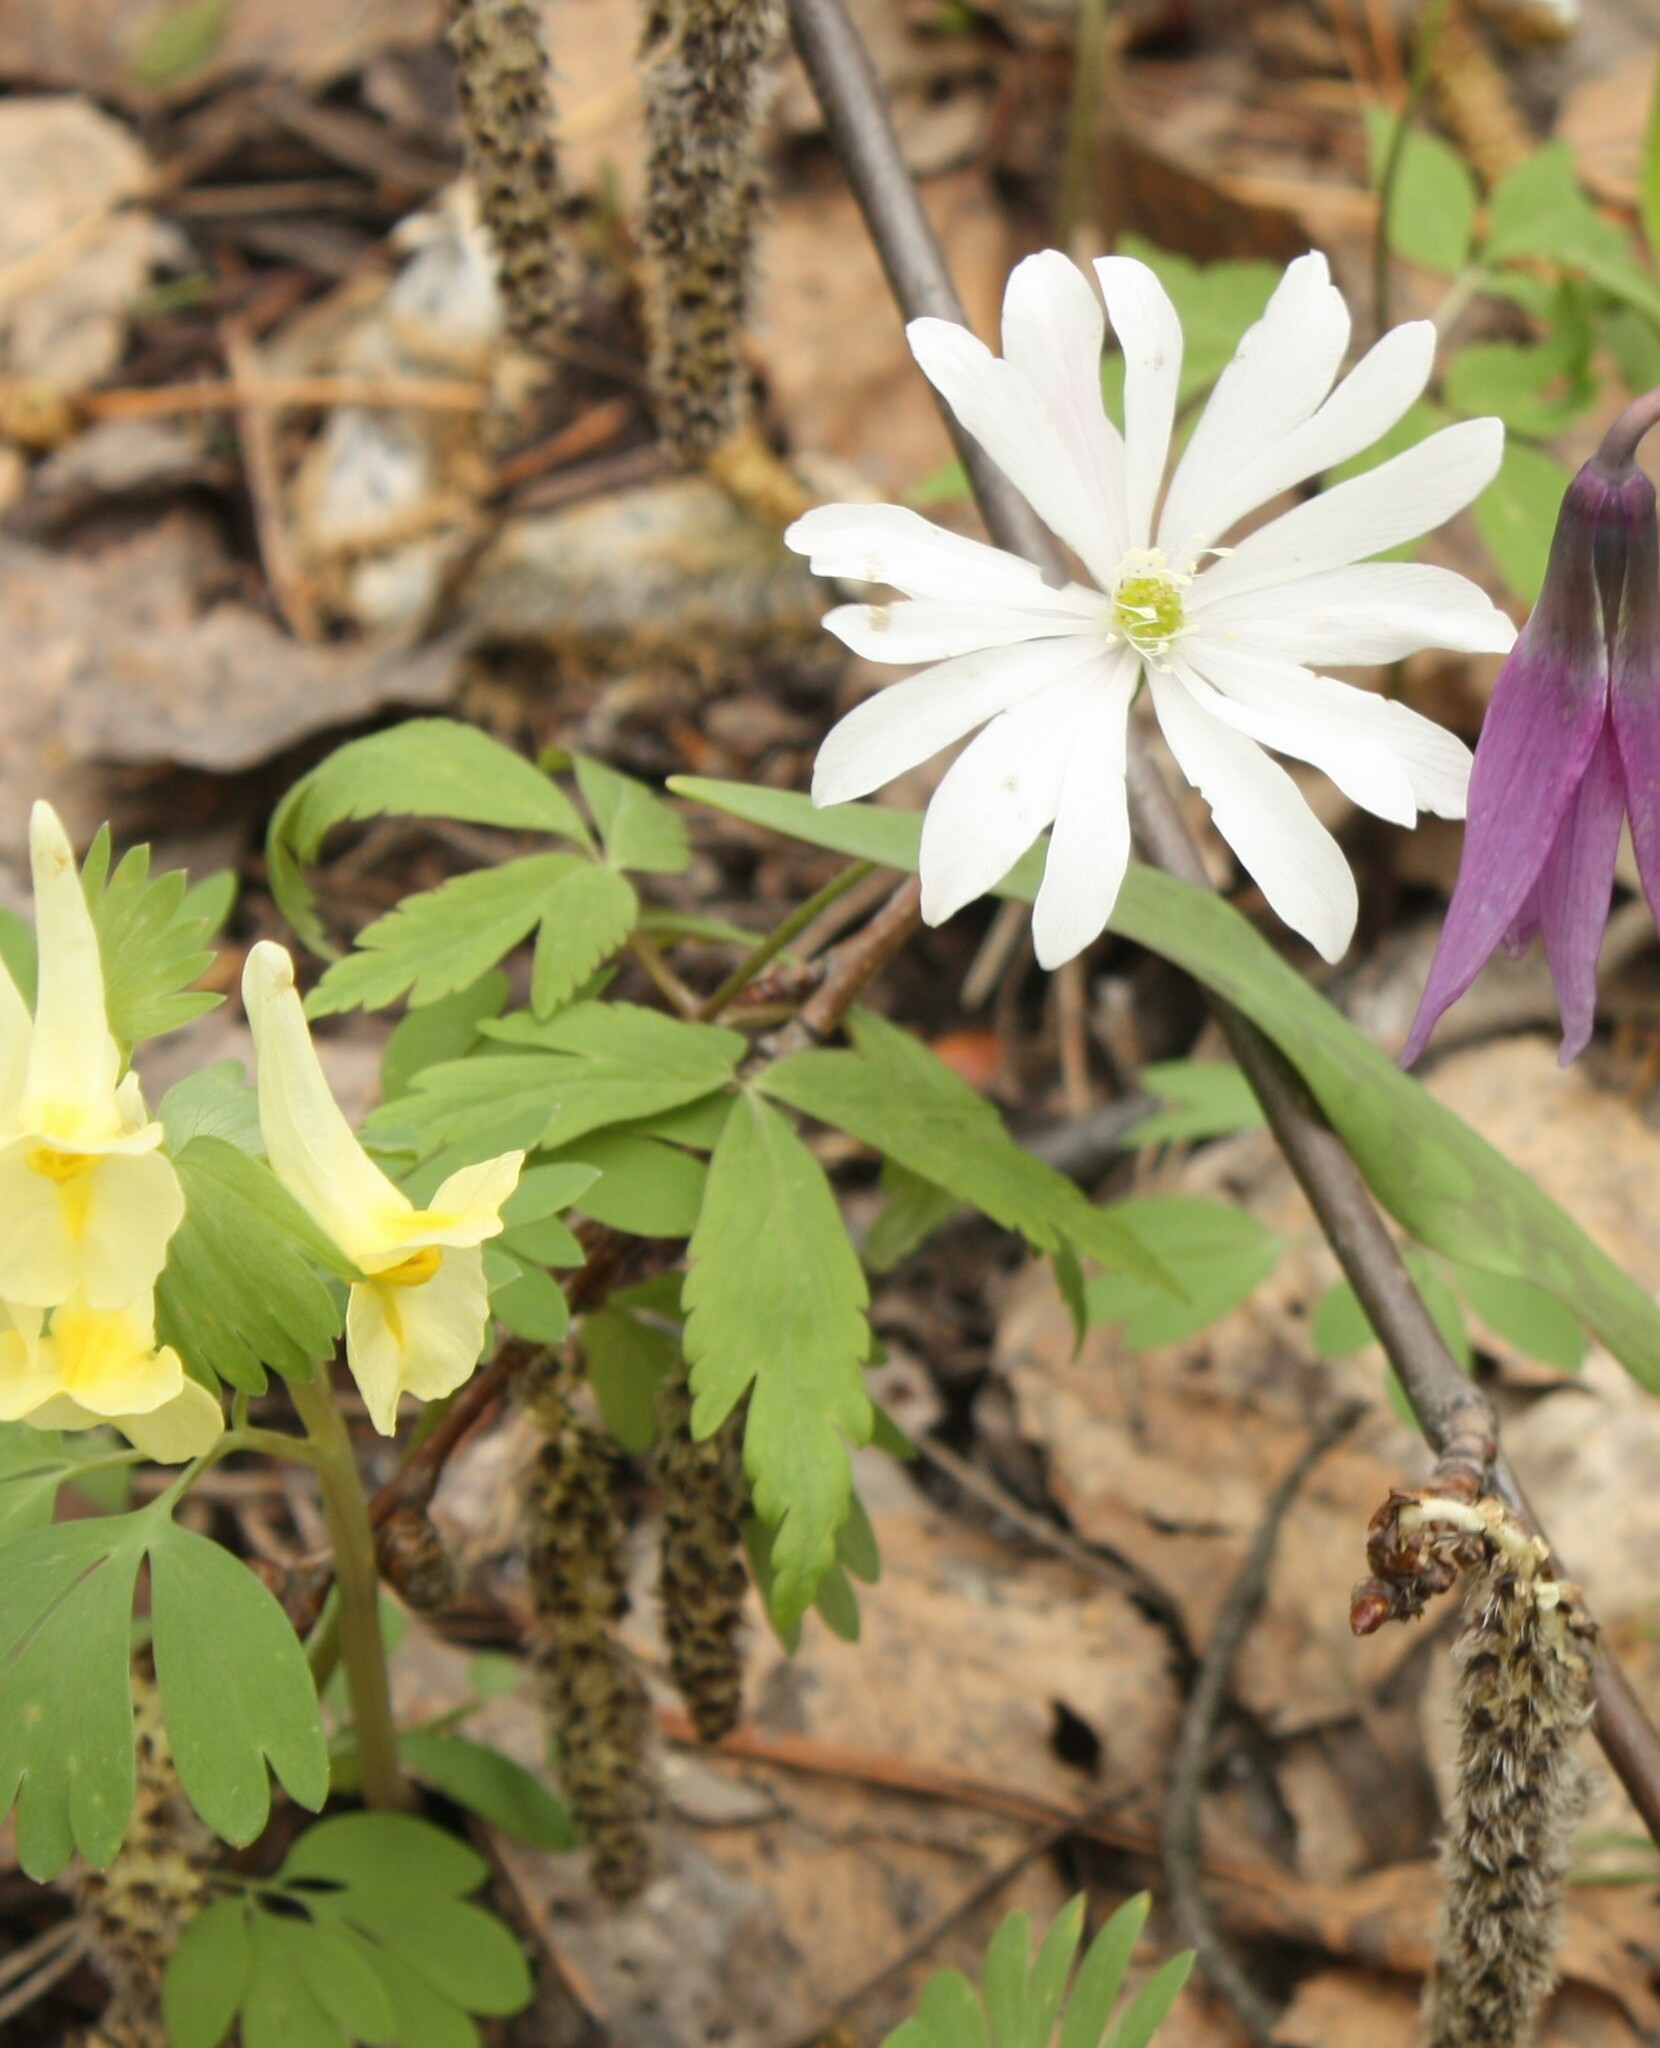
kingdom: Plantae
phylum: Tracheophyta
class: Magnoliopsida
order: Ranunculales
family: Ranunculaceae
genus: Anemone
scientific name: Anemone altaica
